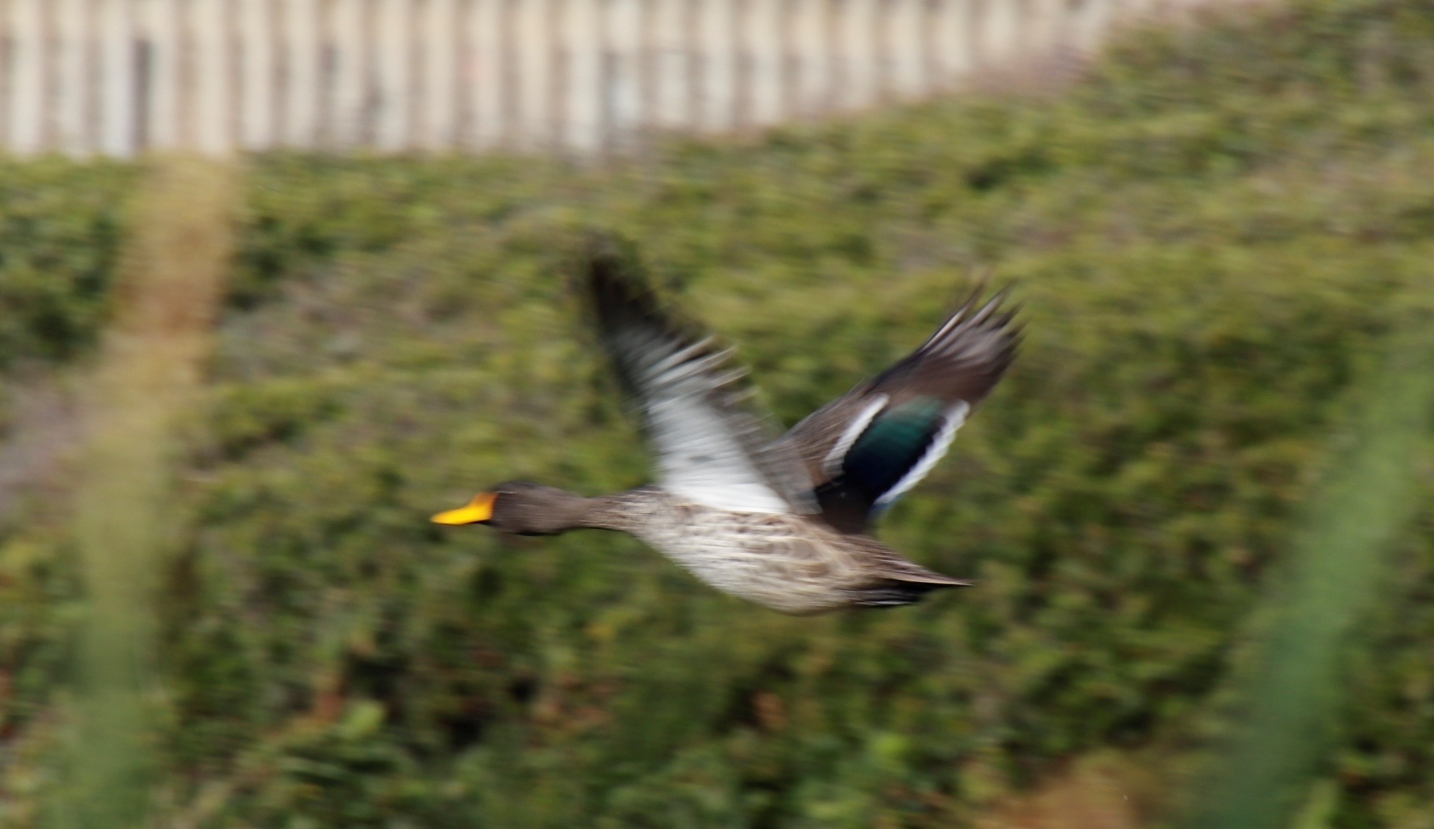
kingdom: Animalia
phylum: Chordata
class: Aves
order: Anseriformes
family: Anatidae
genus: Anas
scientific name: Anas undulata
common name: Yellow-billed duck
